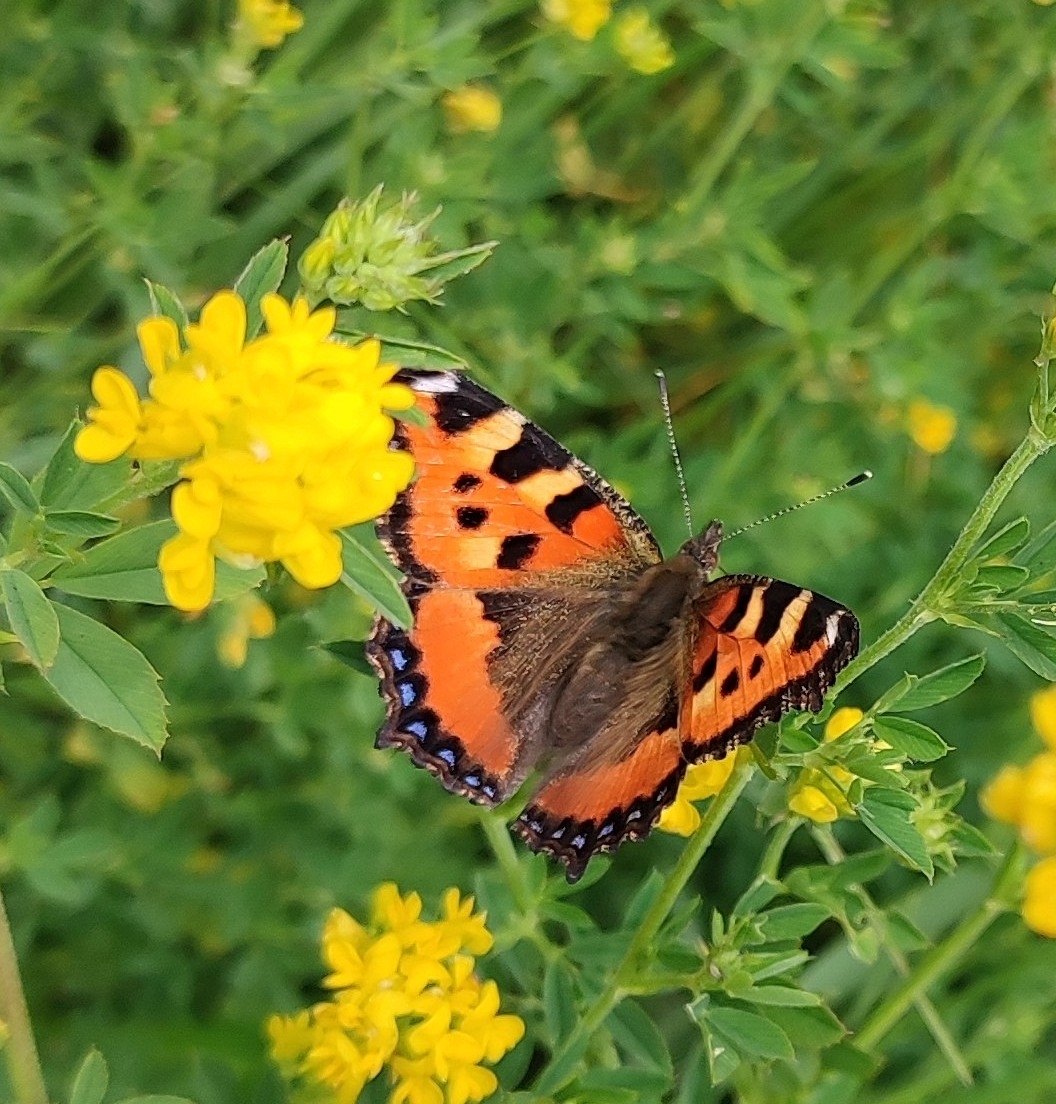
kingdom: Animalia
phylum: Arthropoda
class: Insecta
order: Lepidoptera
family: Nymphalidae
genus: Aglais
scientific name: Aglais urticae
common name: Small tortoiseshell
